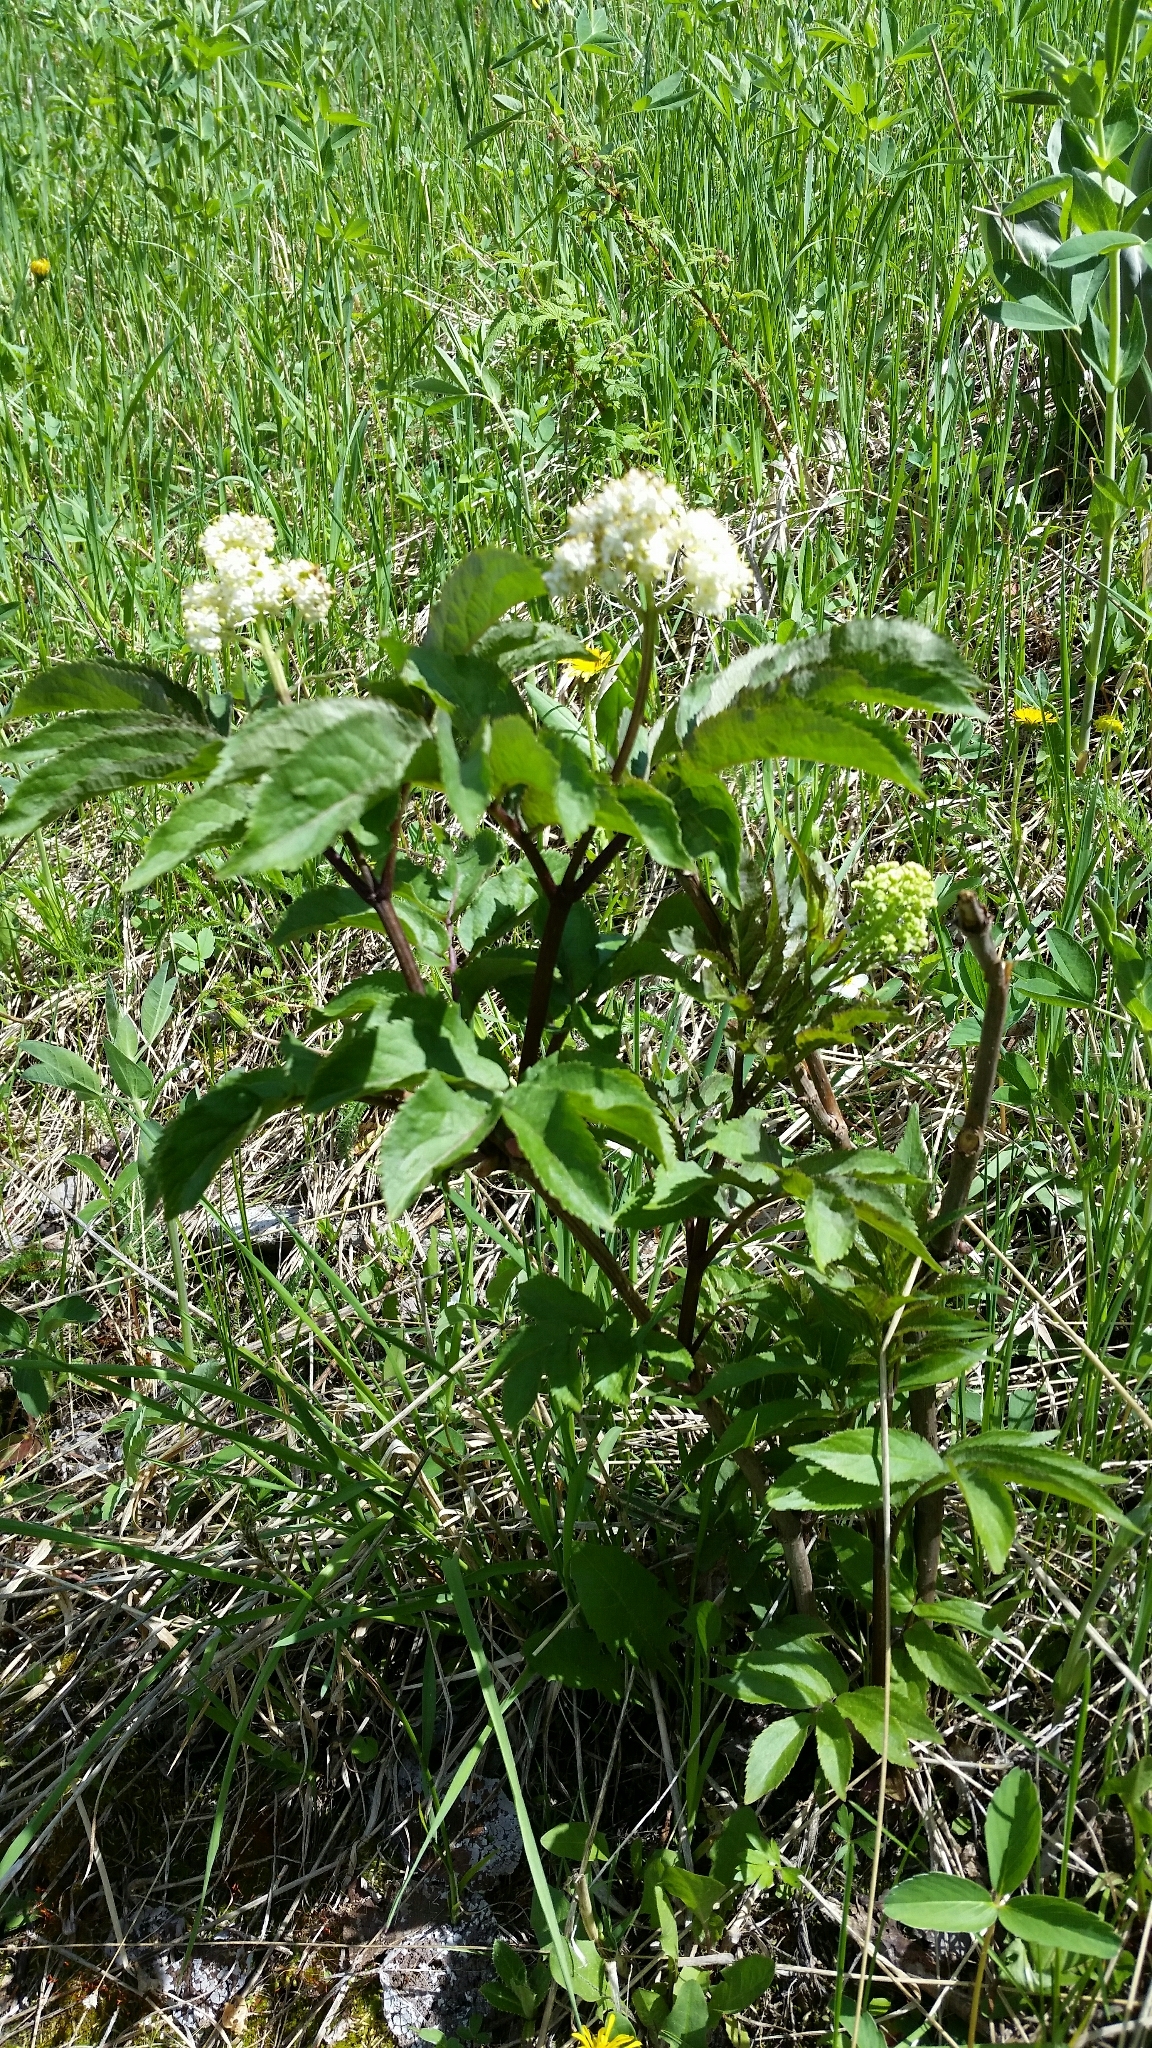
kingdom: Plantae
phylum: Tracheophyta
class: Magnoliopsida
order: Dipsacales
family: Viburnaceae
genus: Sambucus
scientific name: Sambucus racemosa
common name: Red-berried elder
